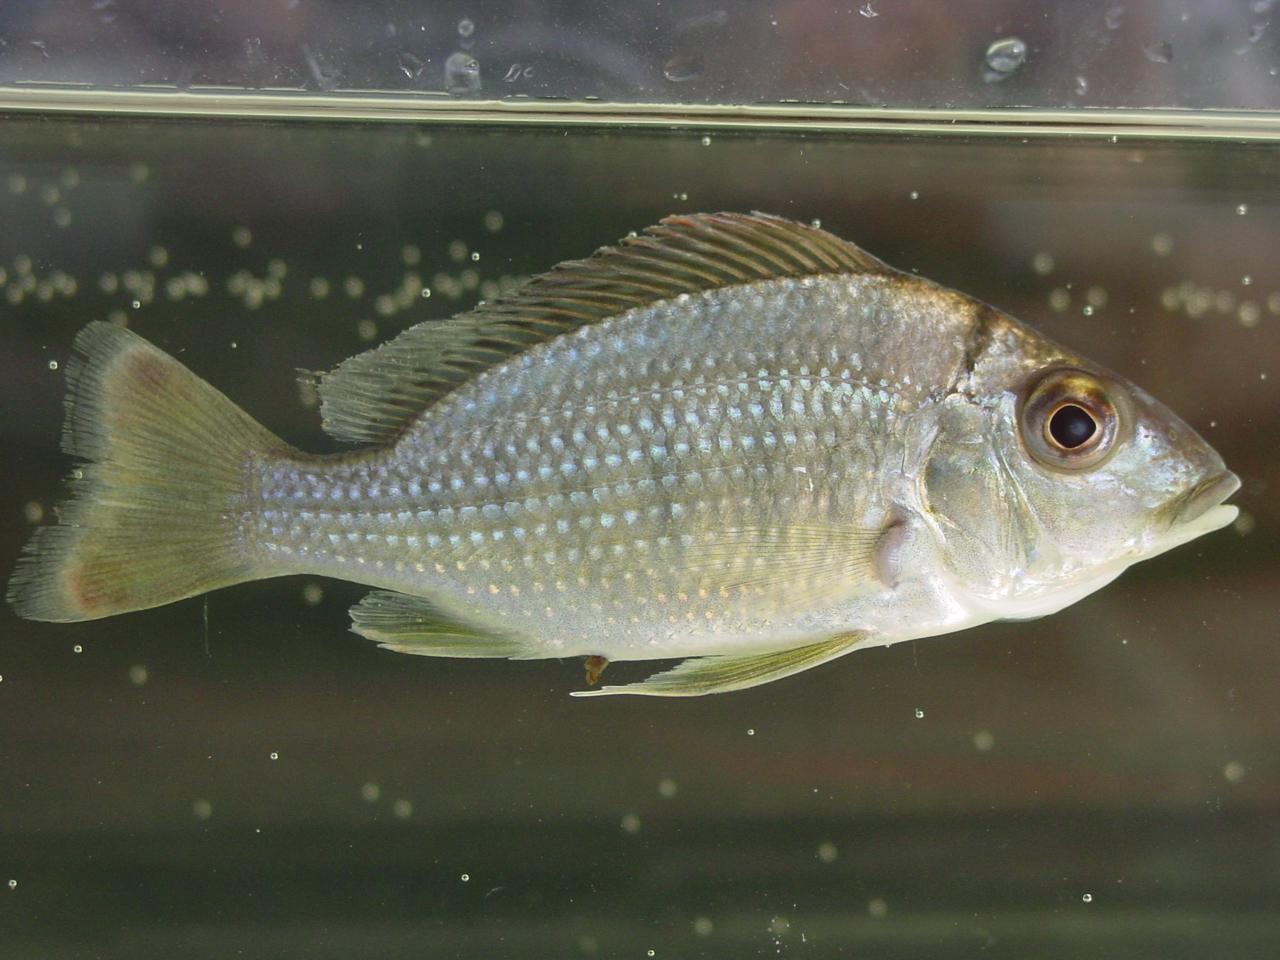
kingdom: Animalia
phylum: Chordata
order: Perciformes
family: Cichlidae
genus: Tylochromis
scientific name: Tylochromis lateralis
